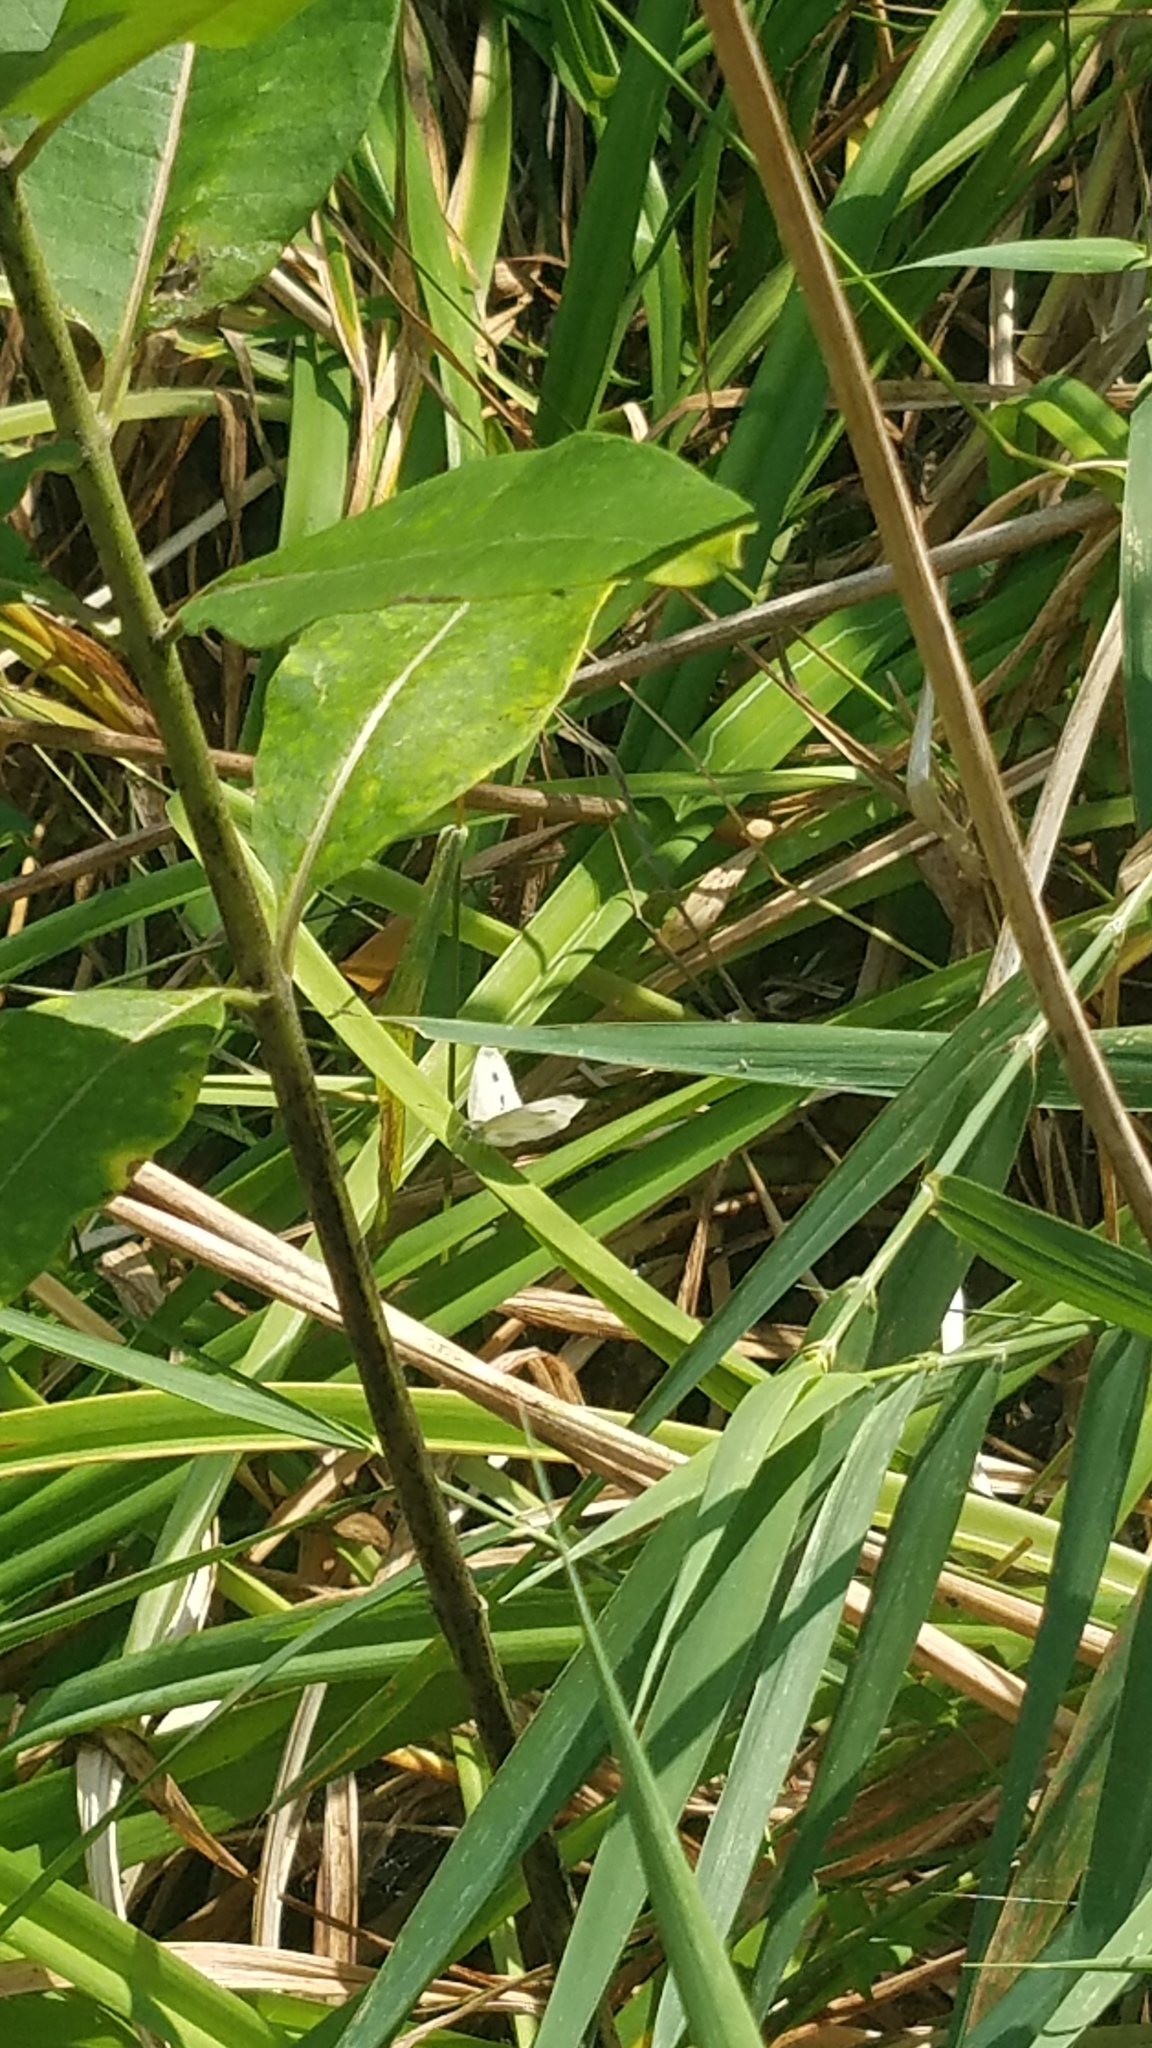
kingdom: Animalia
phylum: Arthropoda
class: Insecta
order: Lepidoptera
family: Pieridae
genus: Pieris
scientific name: Pieris rapae
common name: Small white
